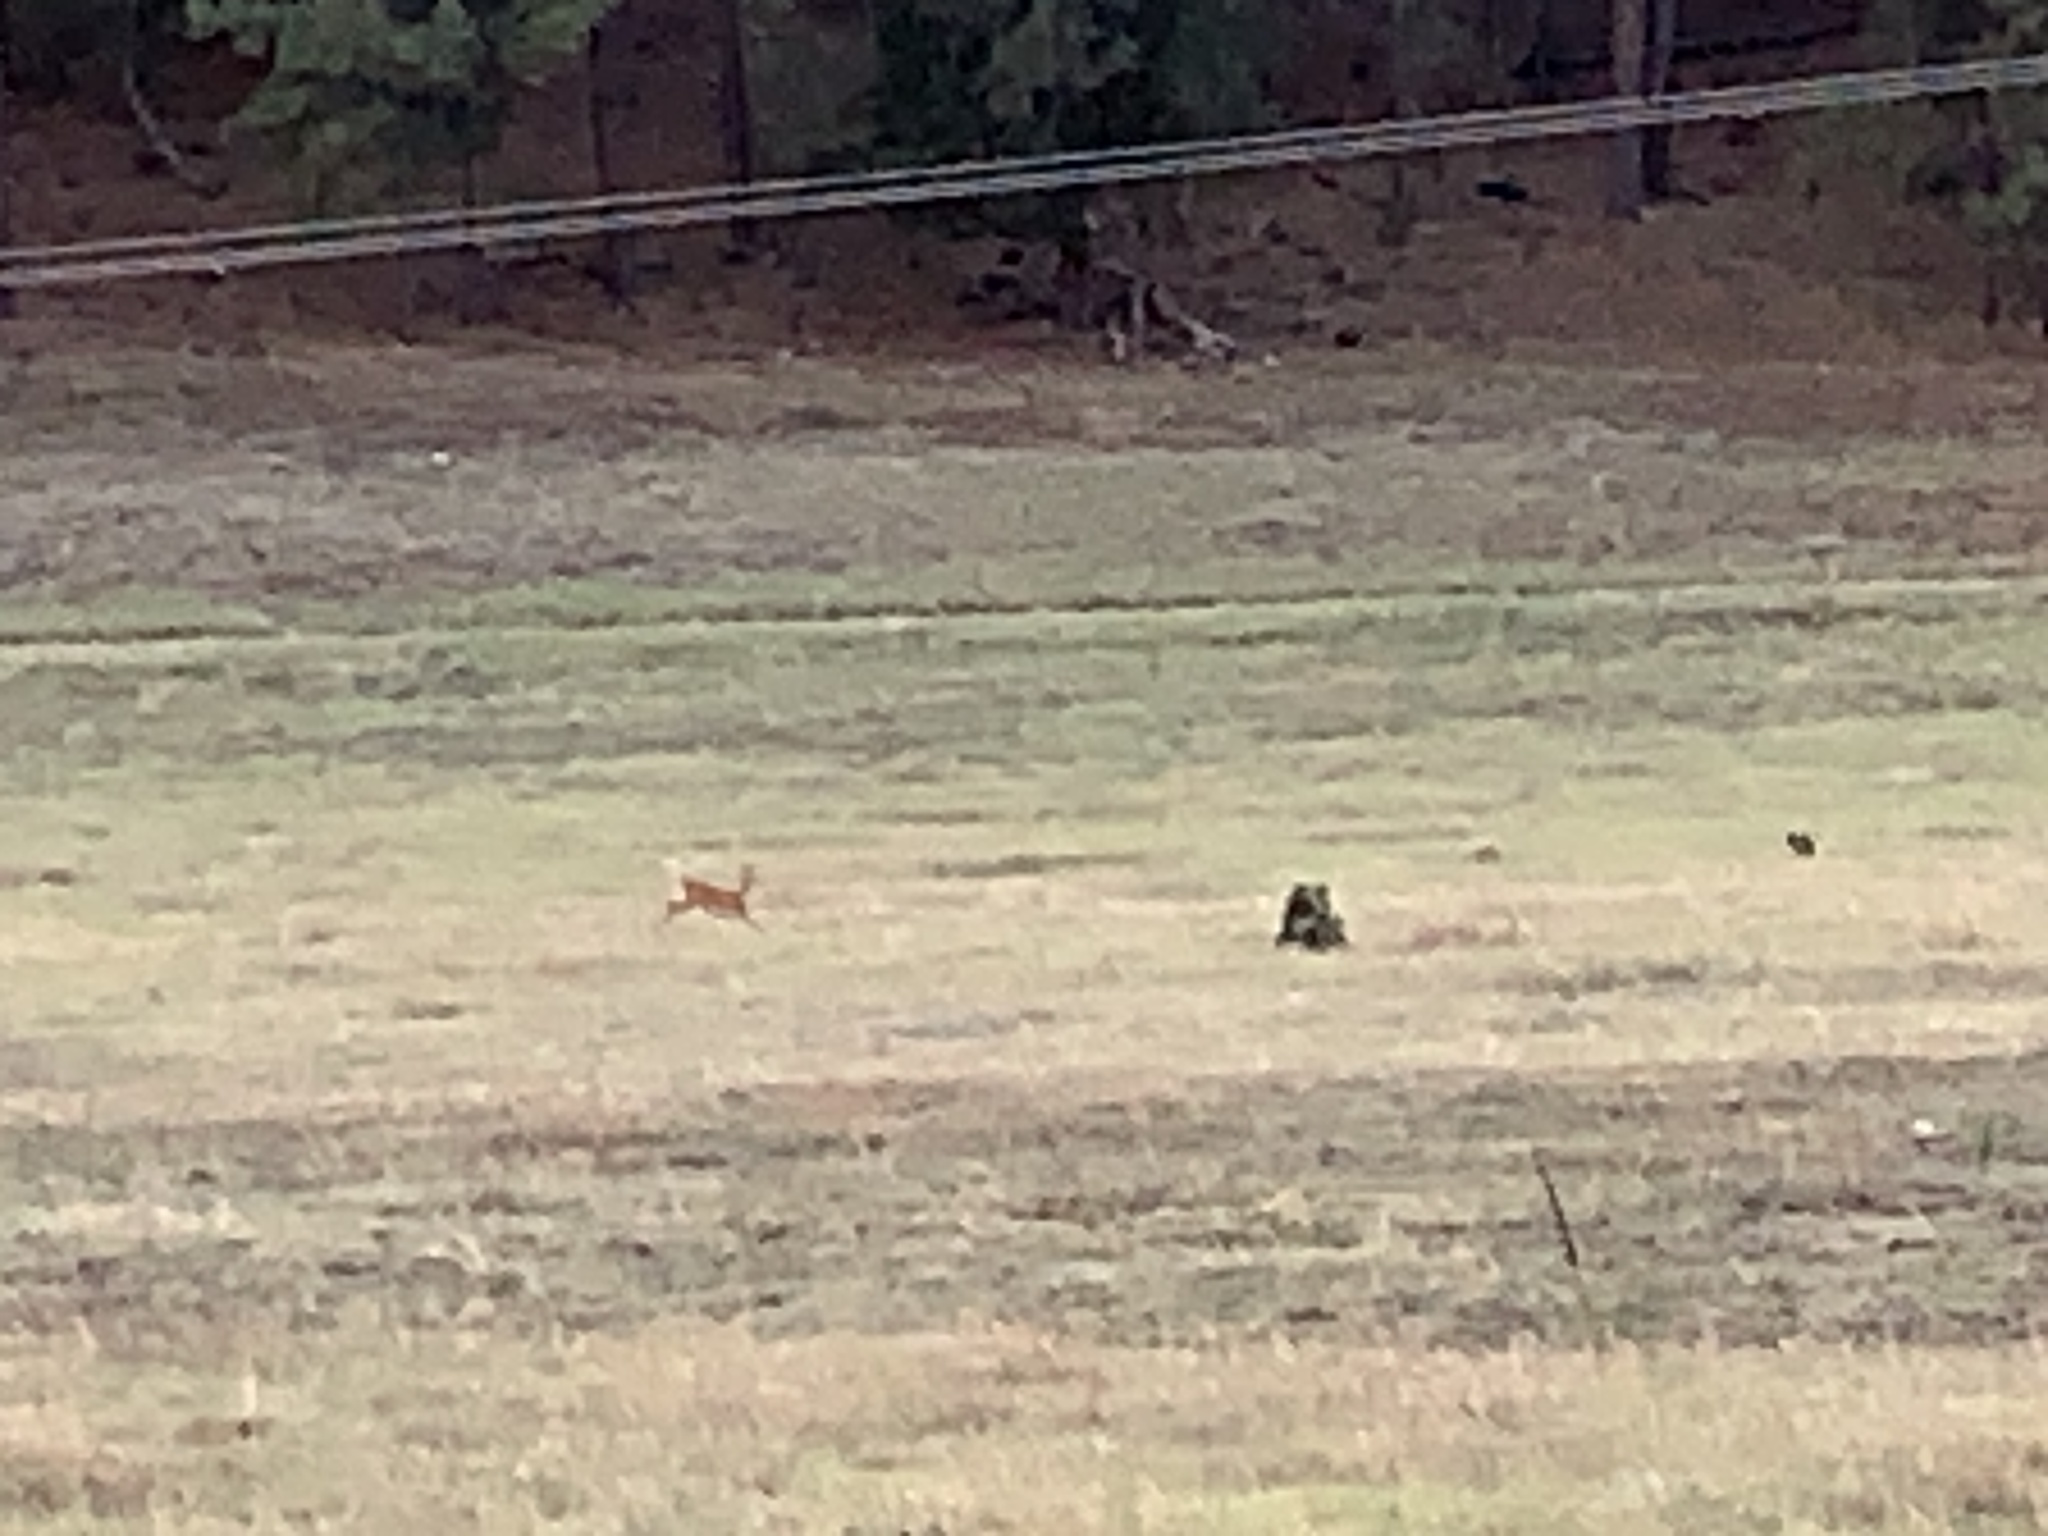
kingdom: Animalia
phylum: Chordata
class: Mammalia
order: Artiodactyla
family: Cervidae
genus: Odocoileus
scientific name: Odocoileus virginianus
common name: White-tailed deer
